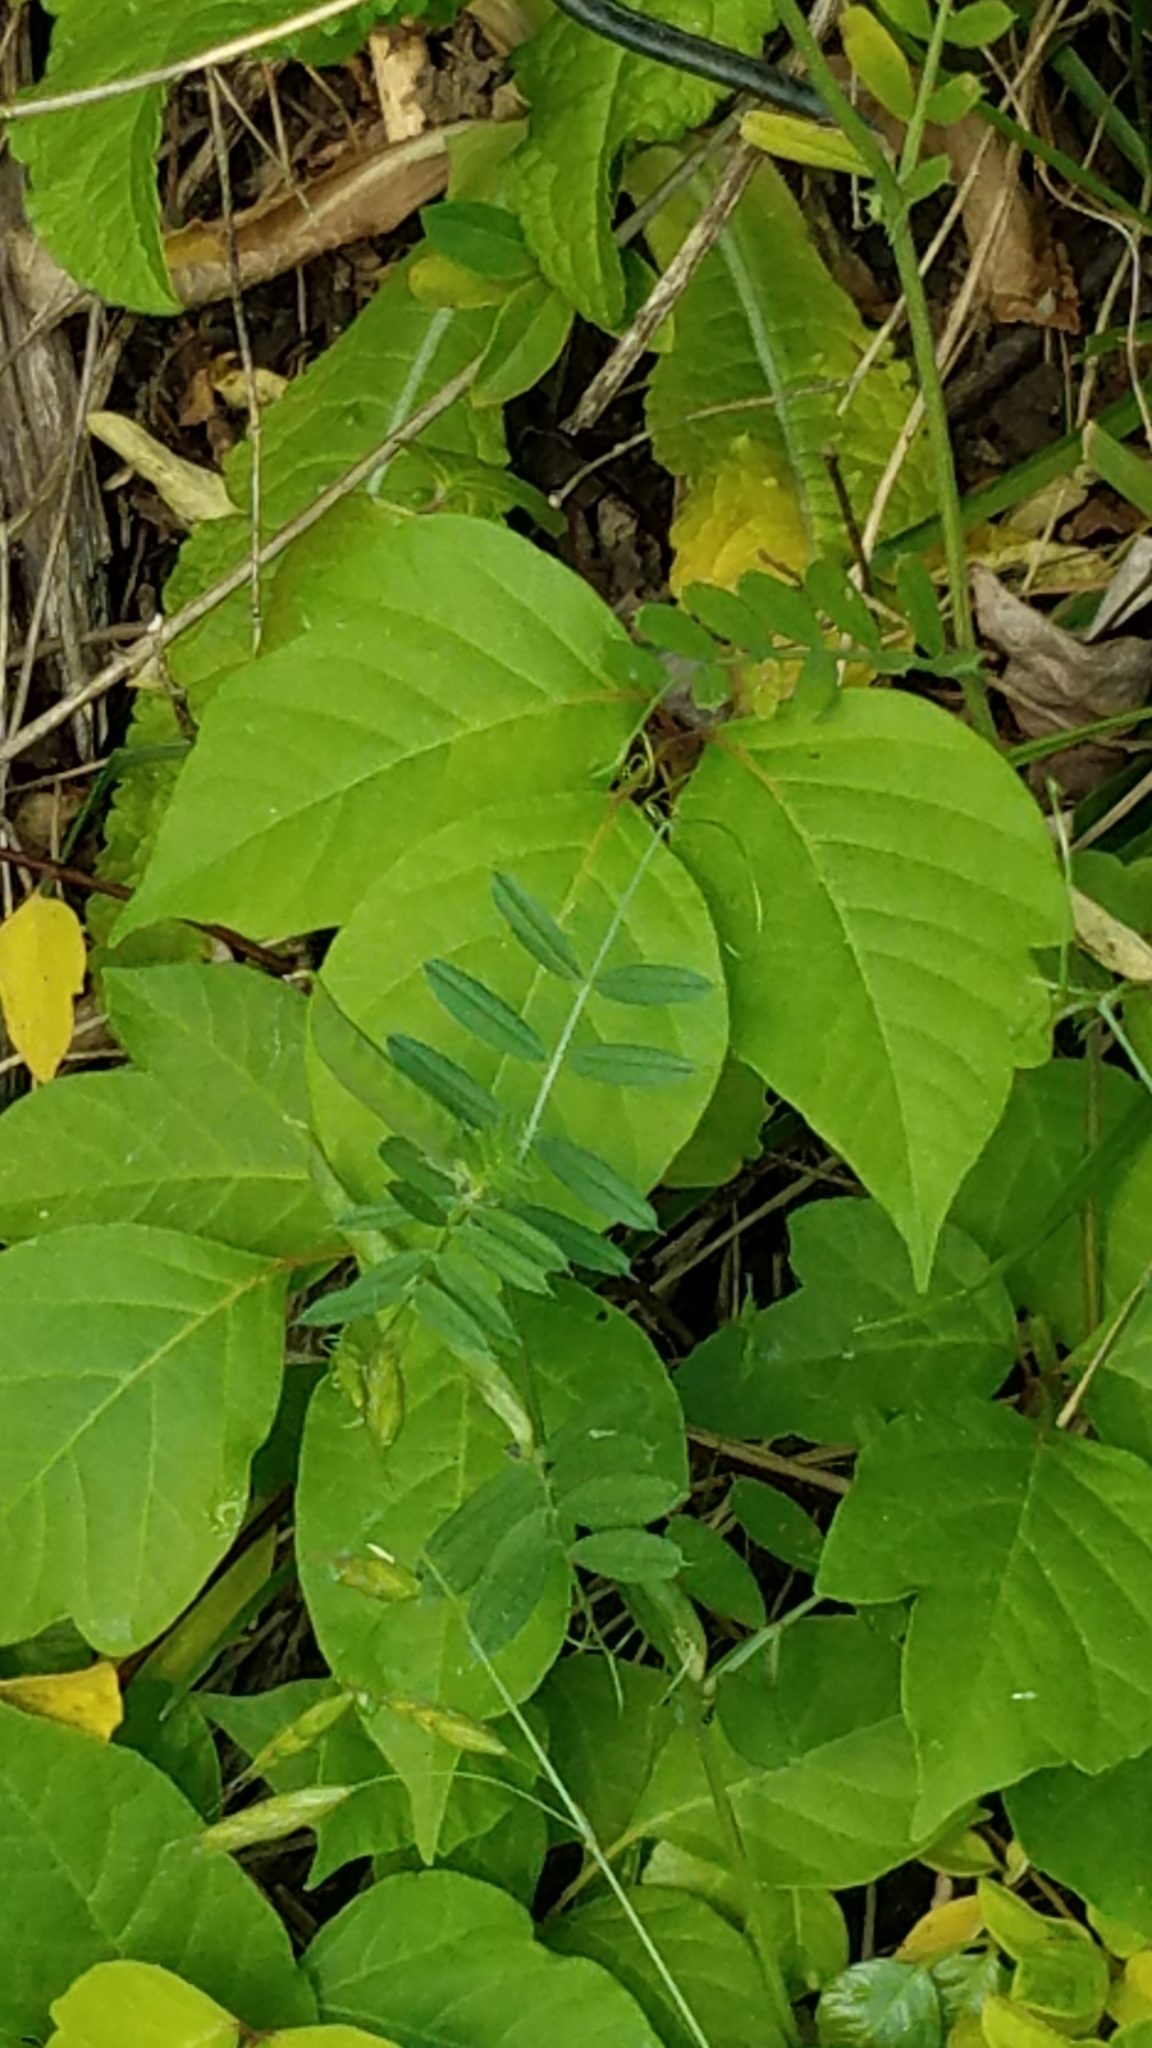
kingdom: Plantae
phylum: Tracheophyta
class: Magnoliopsida
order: Sapindales
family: Anacardiaceae
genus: Toxicodendron
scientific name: Toxicodendron radicans
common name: Poison ivy
